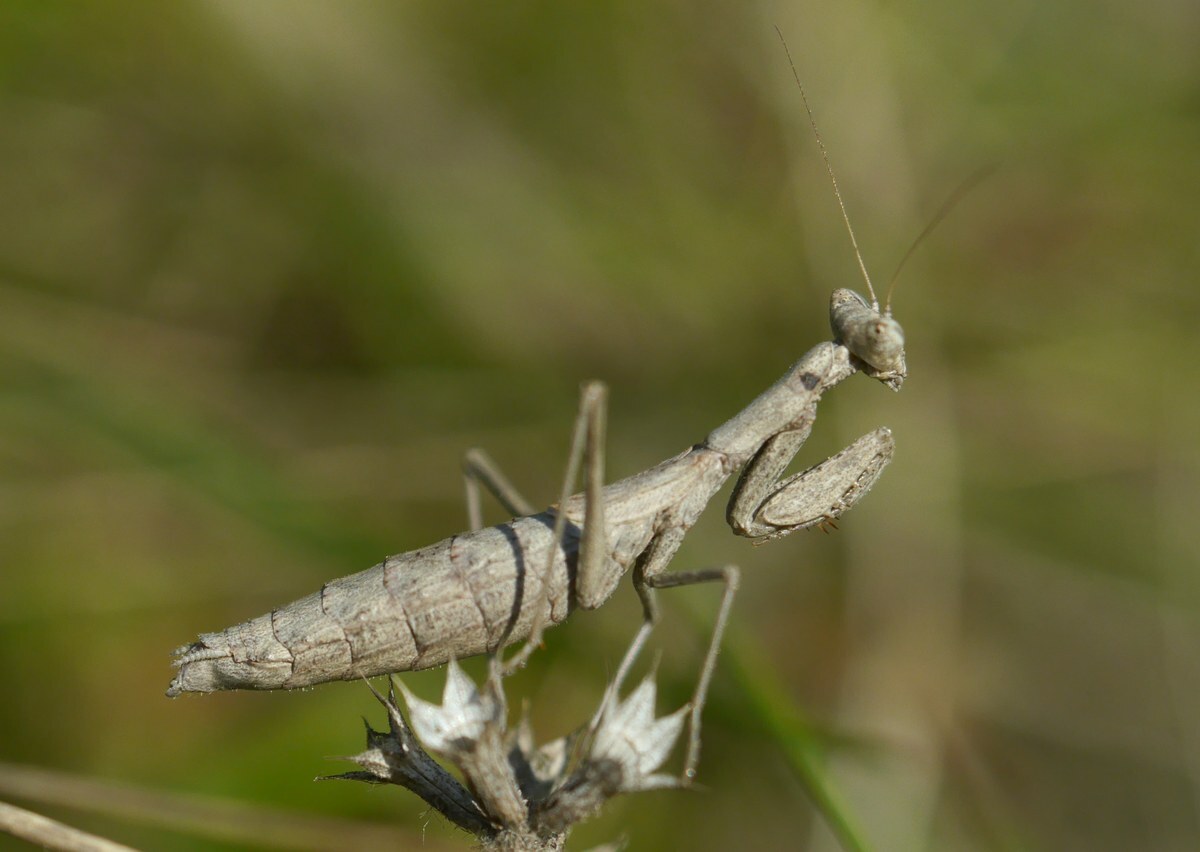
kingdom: Animalia
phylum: Arthropoda
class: Insecta
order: Mantodea
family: Amelidae
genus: Ameles
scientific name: Ameles heldreichi
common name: Heldreich's dwarf mantis
